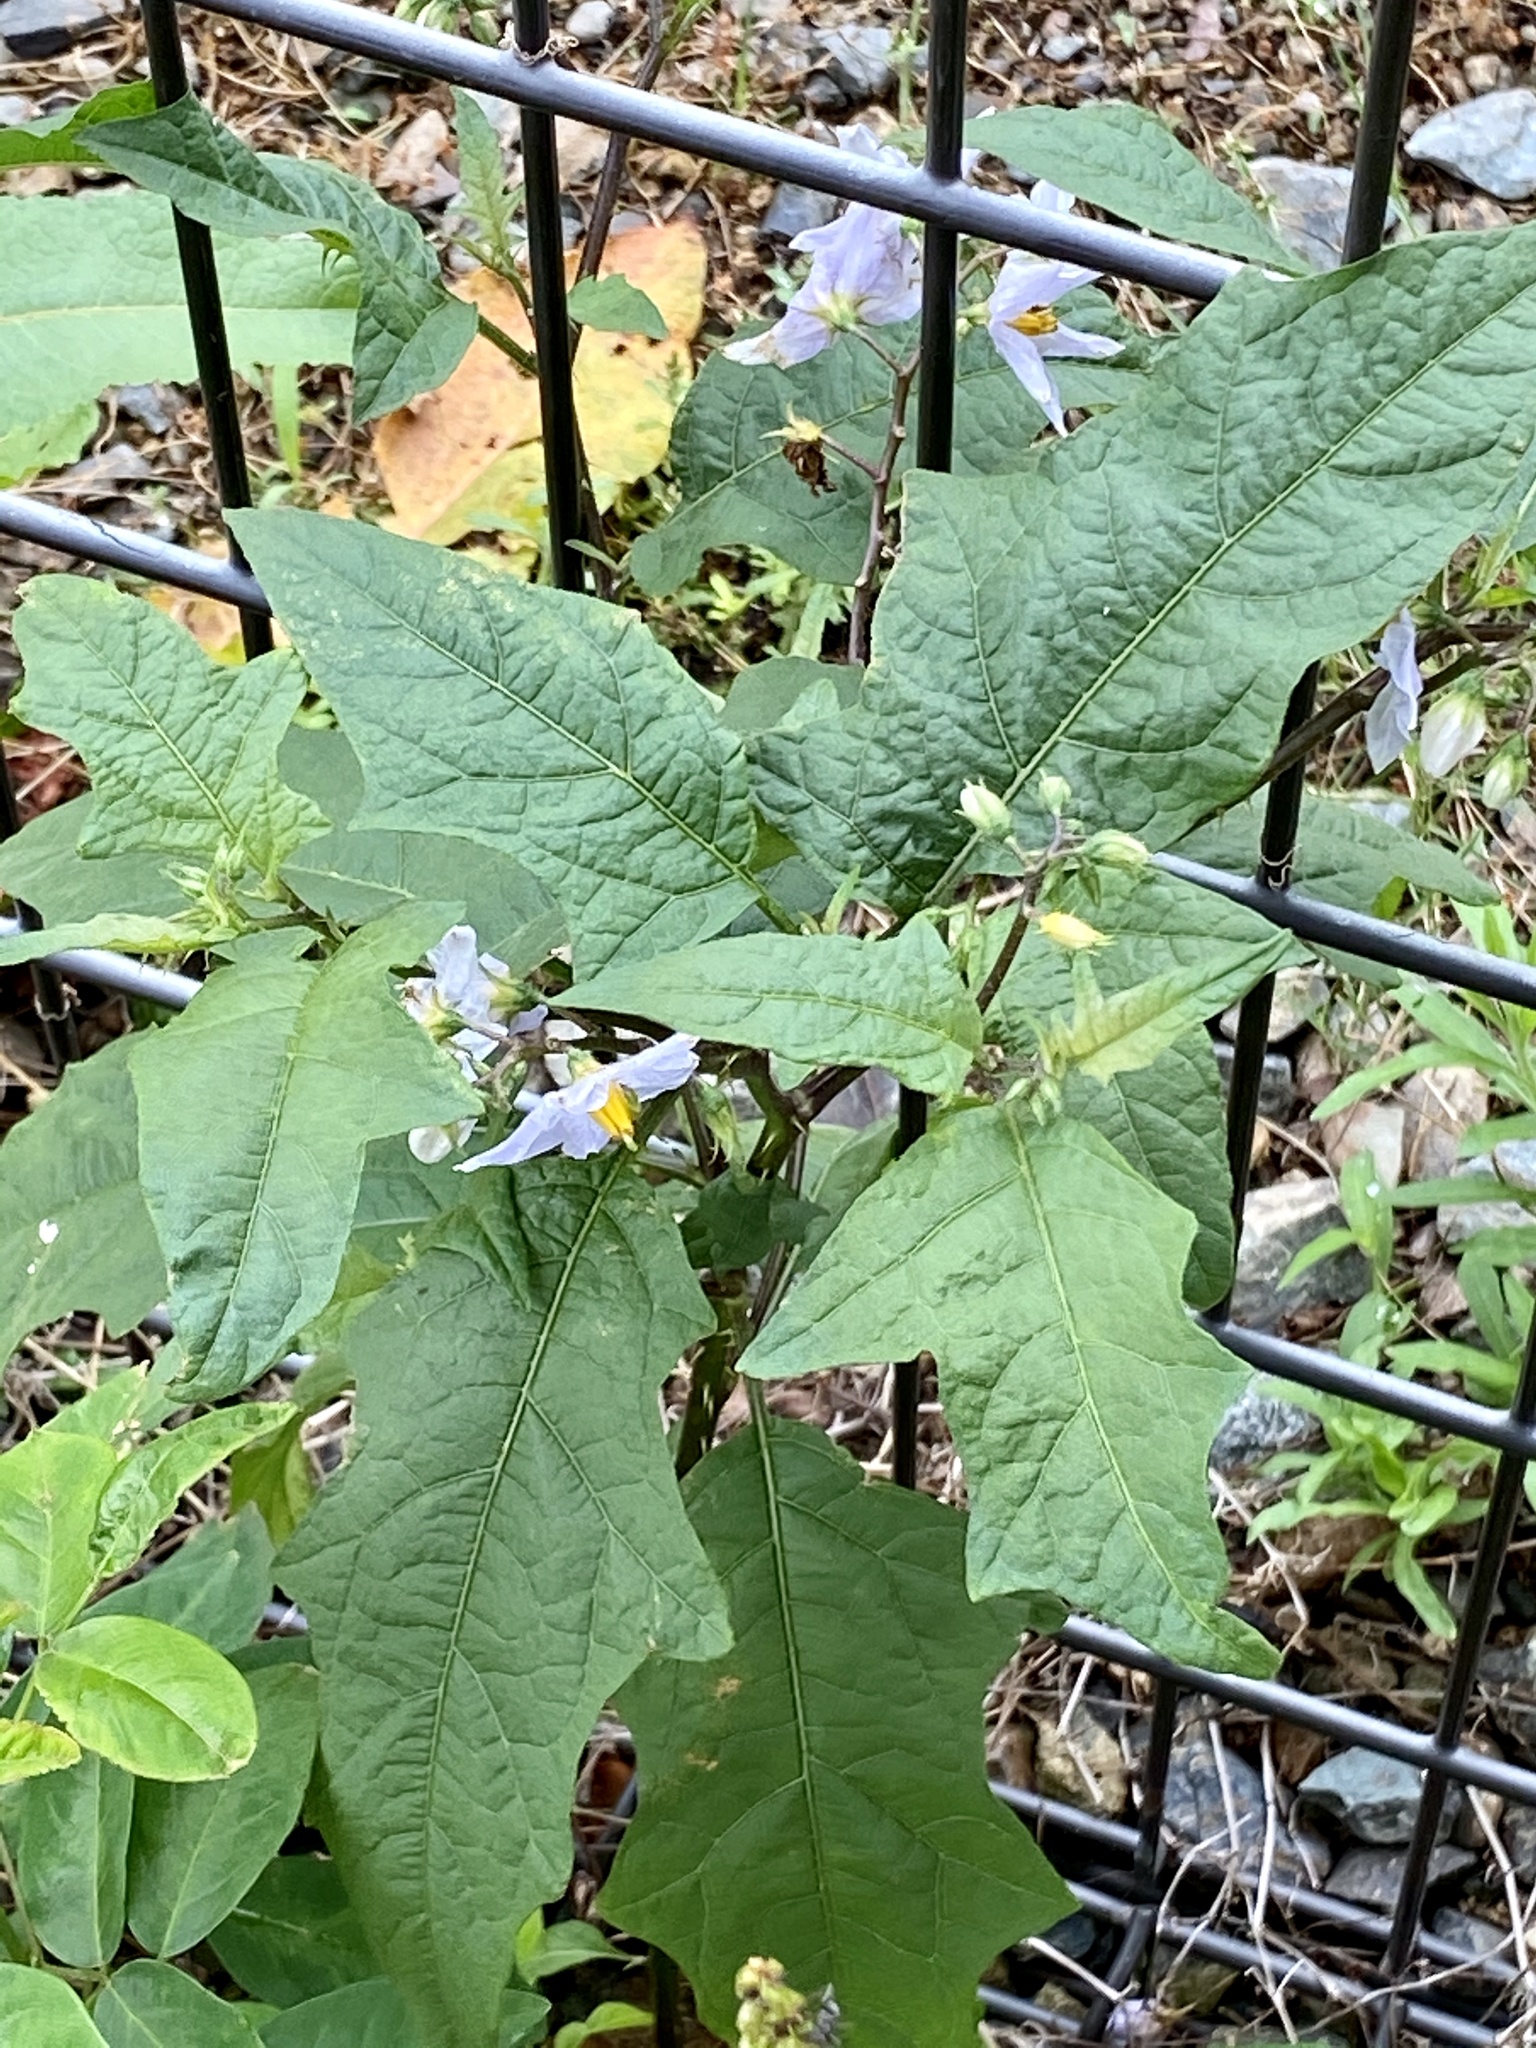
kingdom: Plantae
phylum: Tracheophyta
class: Magnoliopsida
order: Solanales
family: Solanaceae
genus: Solanum
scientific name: Solanum carolinense
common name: Horse-nettle
